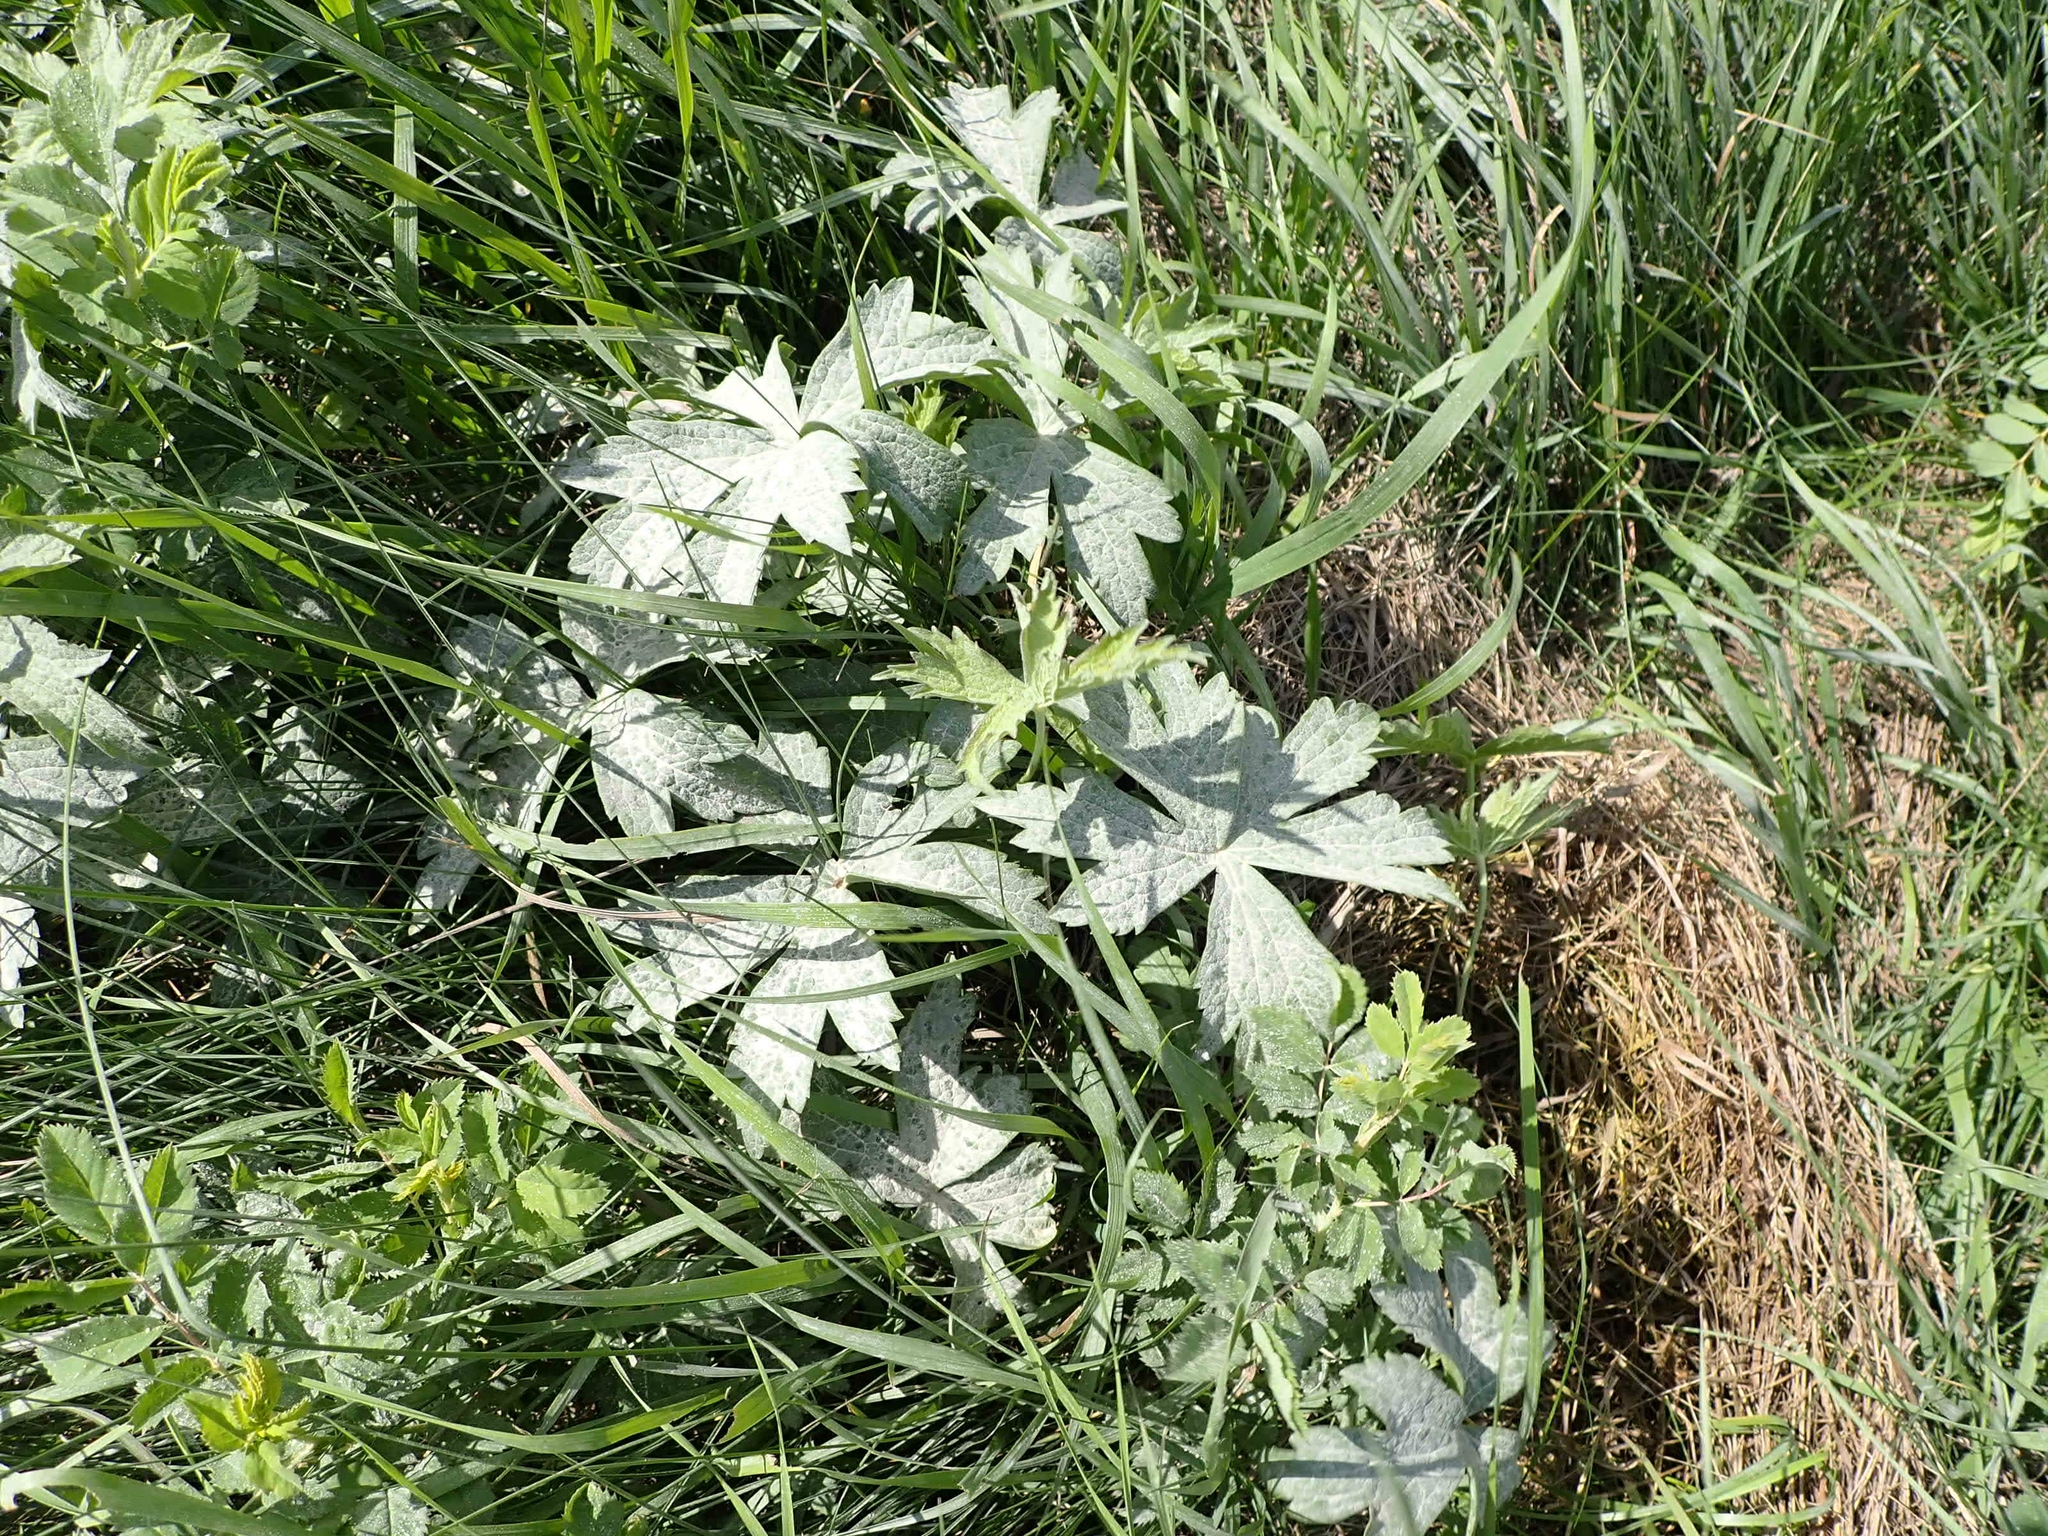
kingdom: Plantae
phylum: Tracheophyta
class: Magnoliopsida
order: Ranunculales
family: Ranunculaceae
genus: Anemonastrum
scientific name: Anemonastrum canadense
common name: Canada anemone
